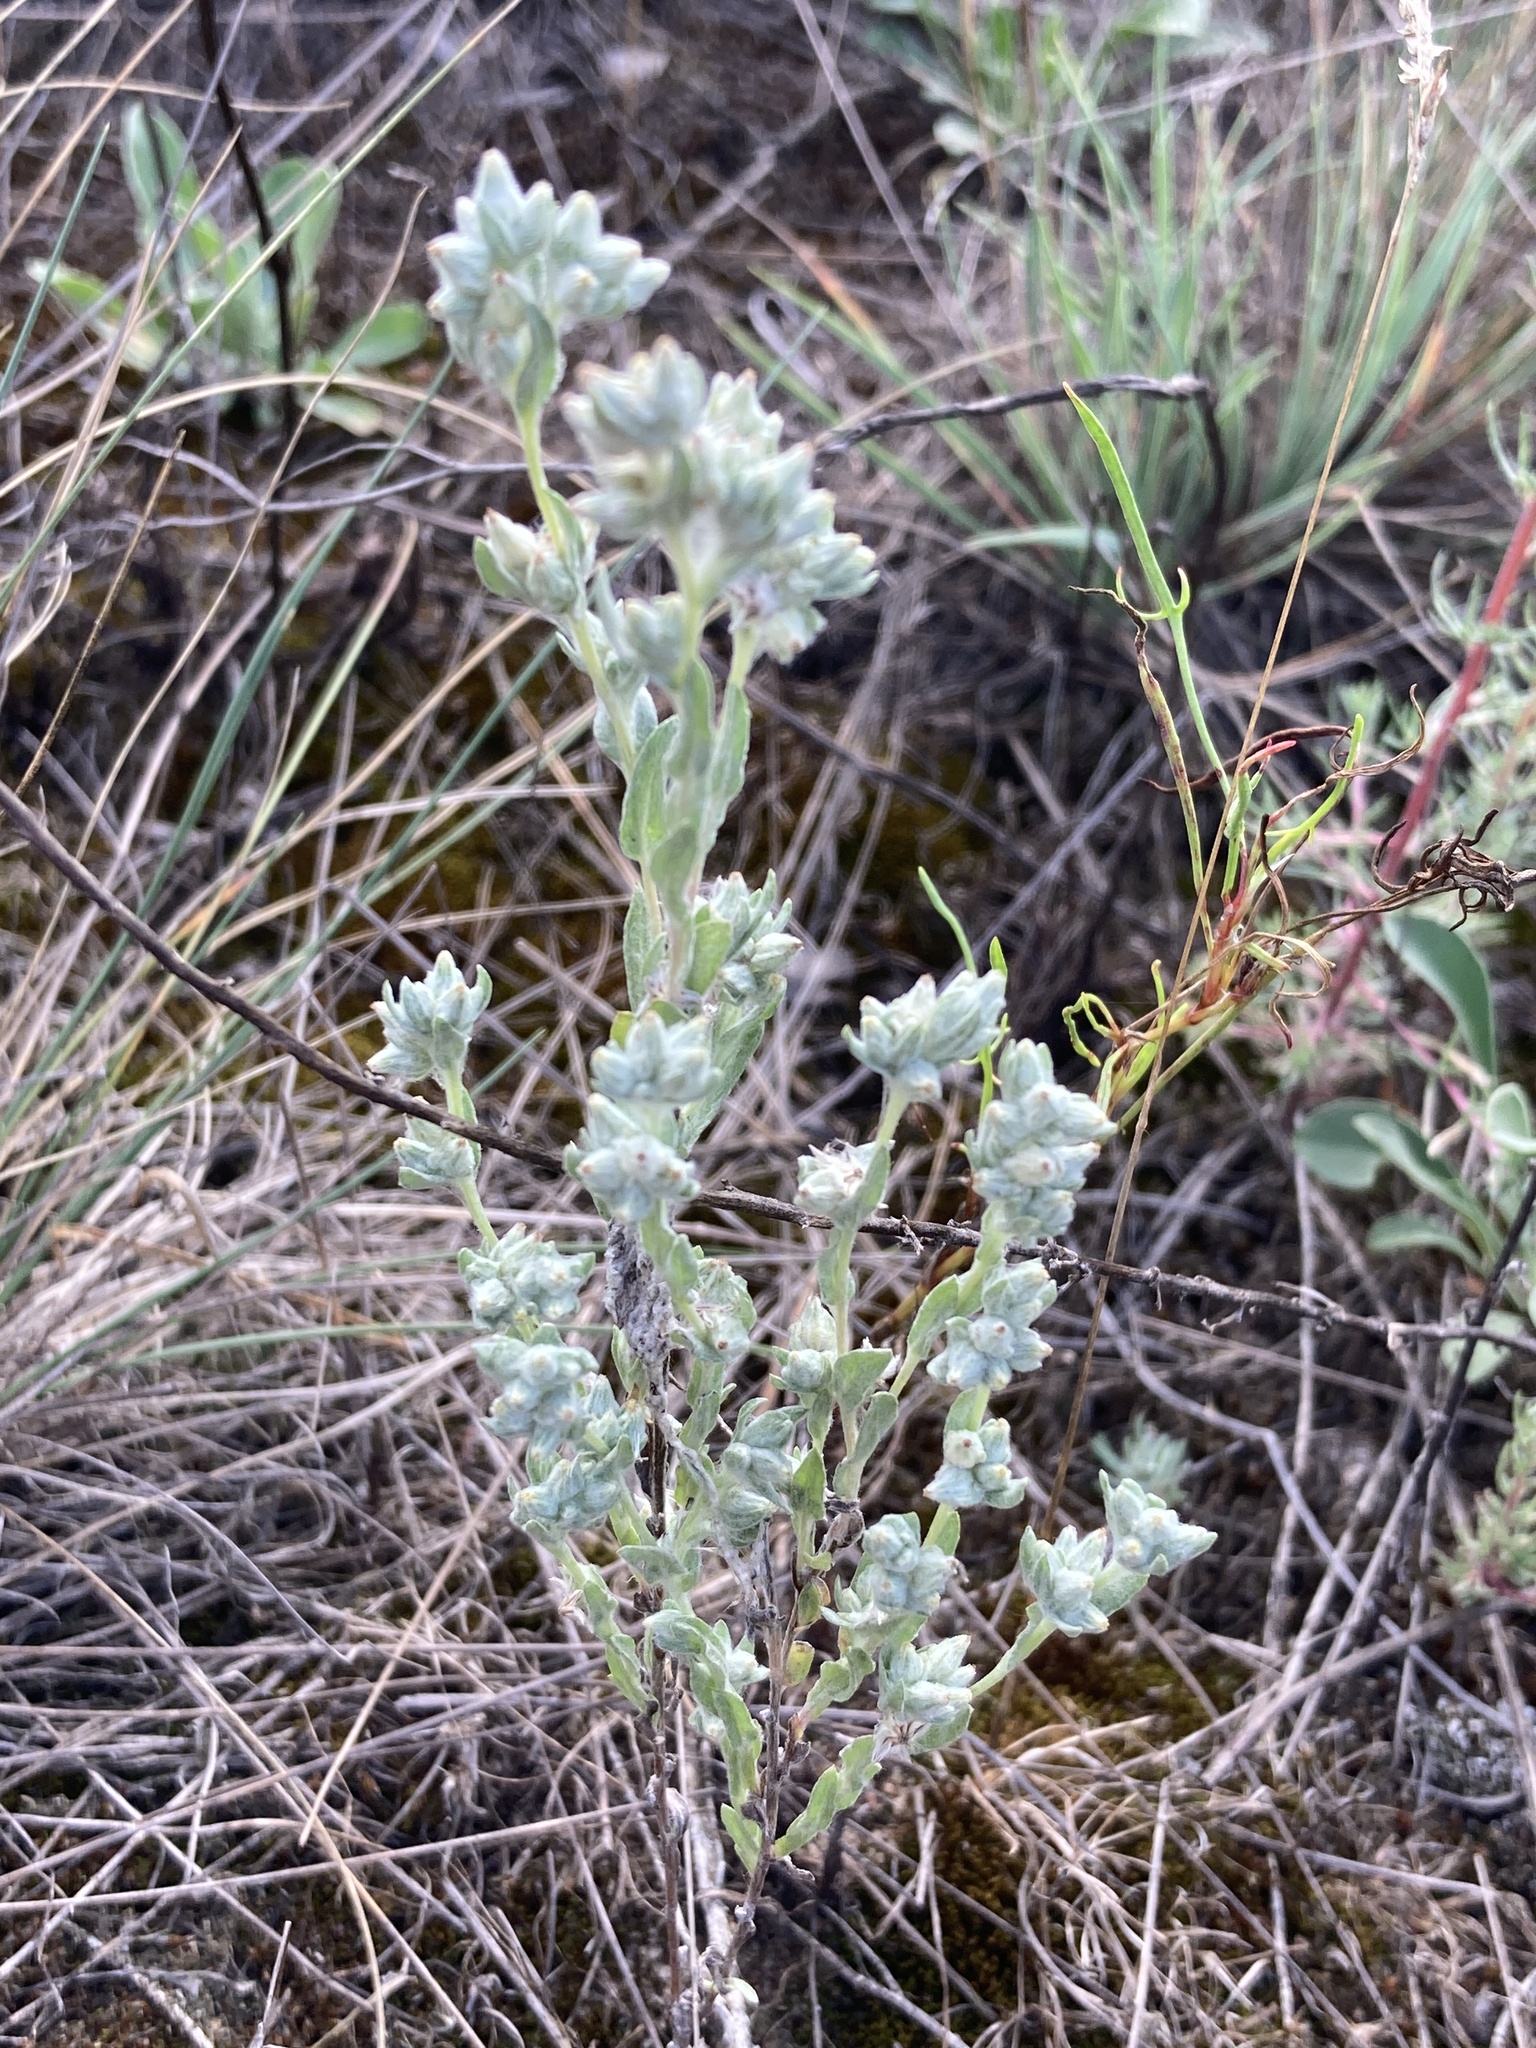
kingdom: Plantae
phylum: Tracheophyta
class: Magnoliopsida
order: Asterales
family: Asteraceae
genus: Filago
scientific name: Filago arvensis
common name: Field cudweed
